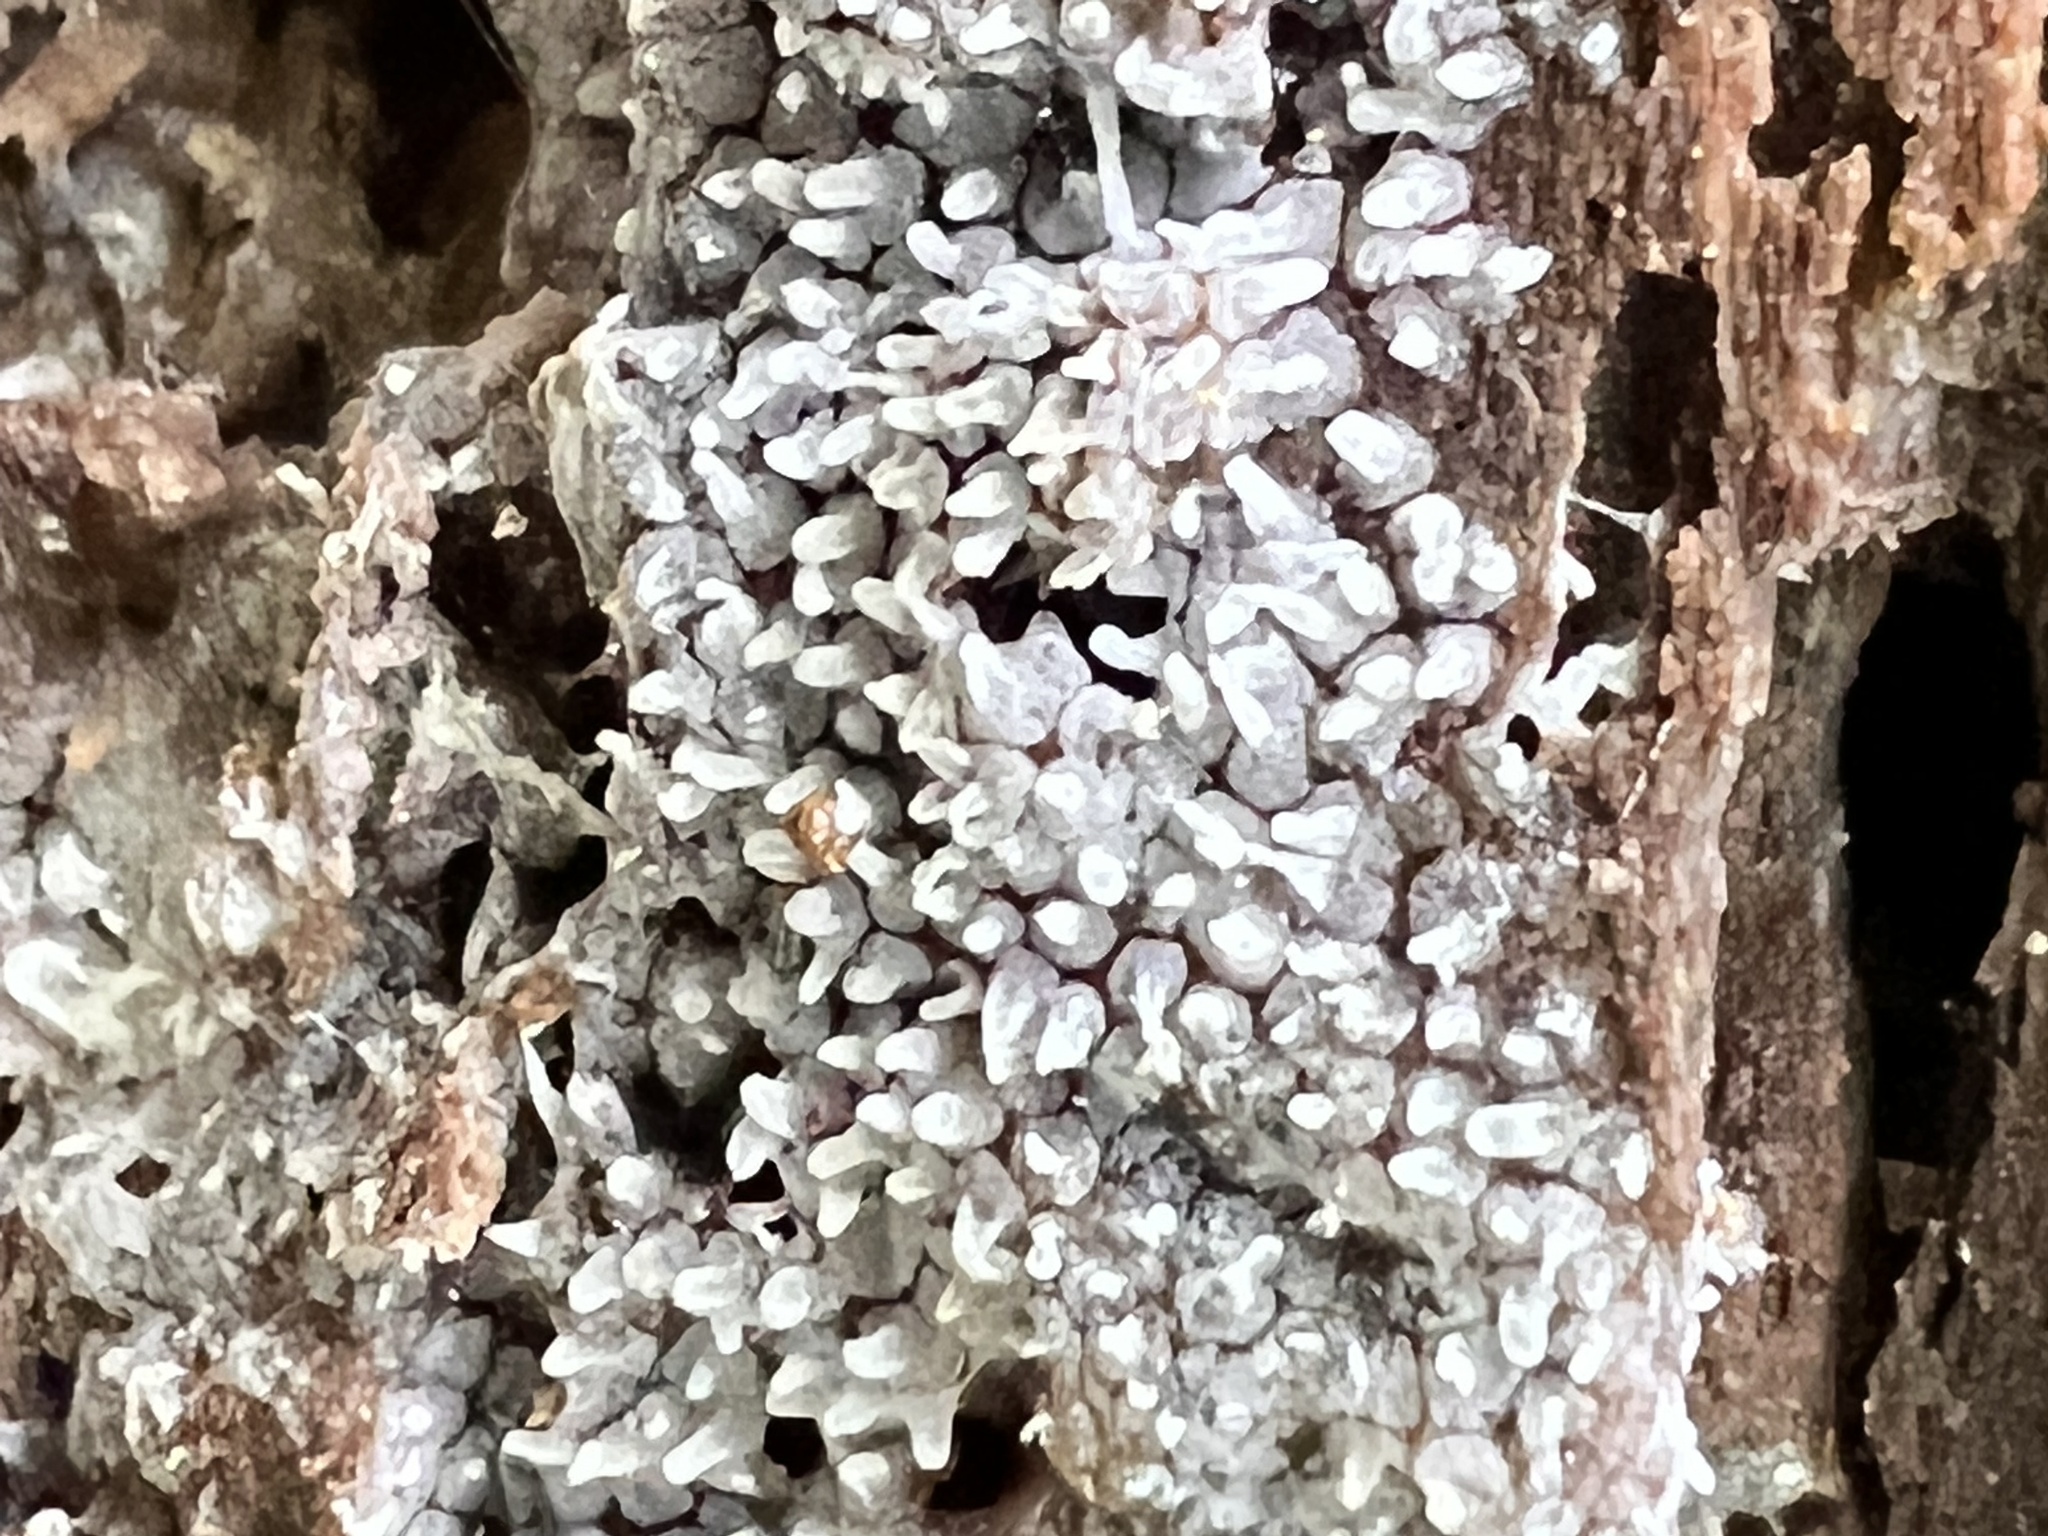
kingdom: Protozoa
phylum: Mycetozoa
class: Protosteliomycetes
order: Ceratiomyxales
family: Ceratiomyxaceae
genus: Ceratiomyxa
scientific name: Ceratiomyxa fruticulosa
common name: Honeycomb coral slime mold
